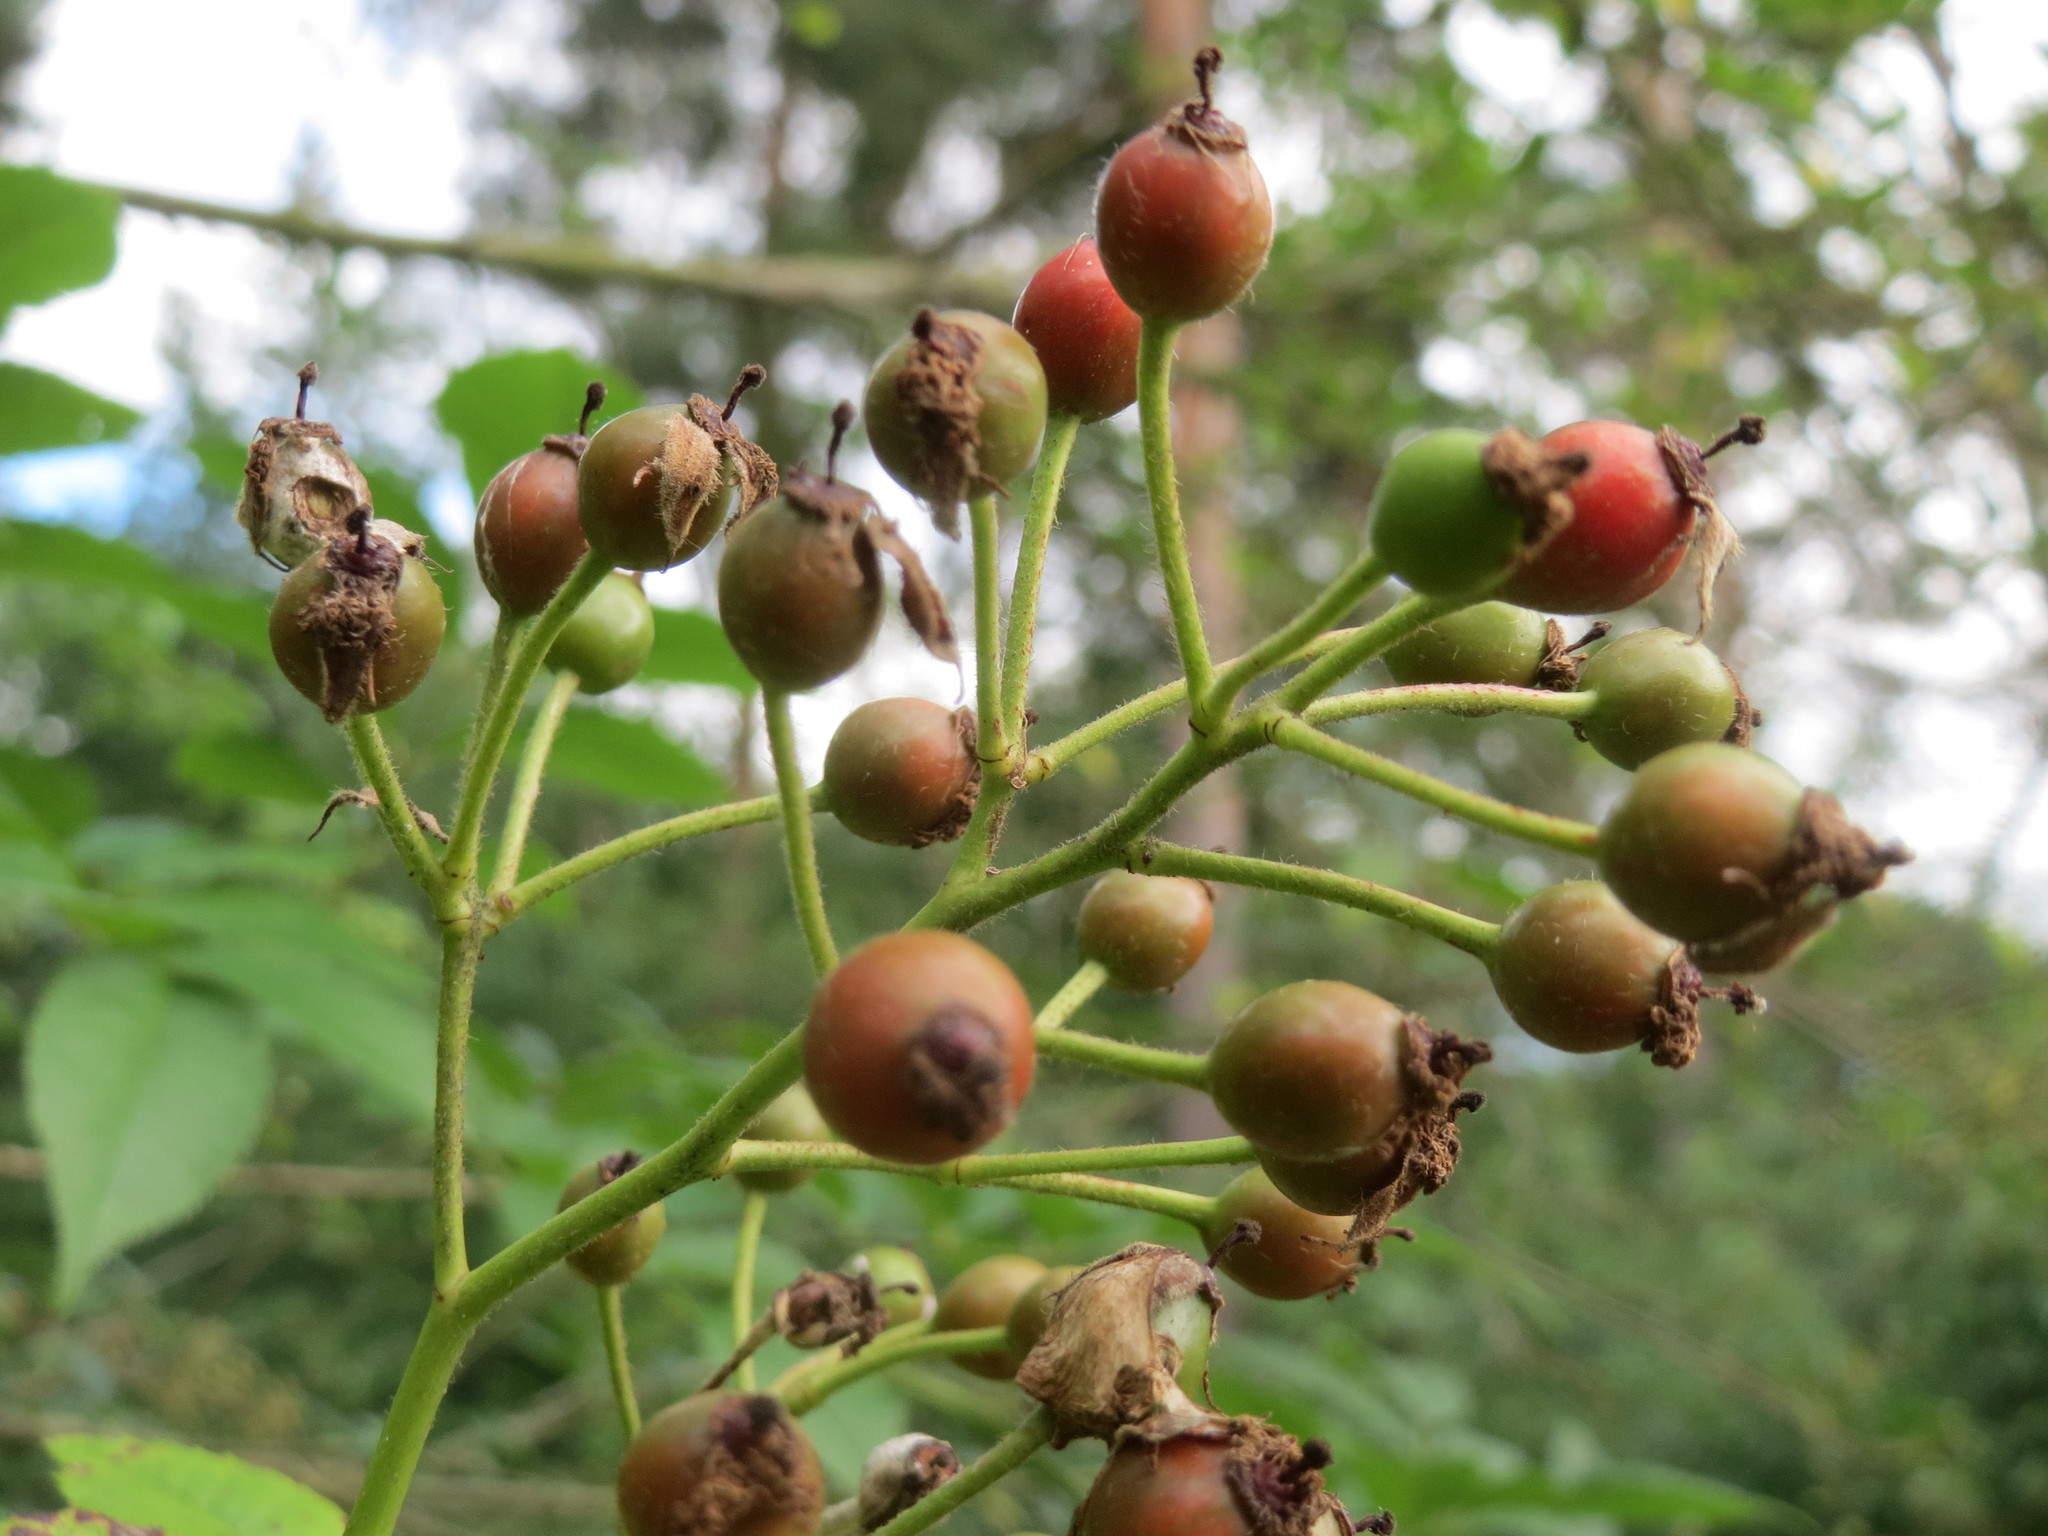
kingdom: Plantae
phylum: Tracheophyta
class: Magnoliopsida
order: Rosales
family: Rosaceae
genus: Rosa
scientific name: Rosa multiflora
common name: Multiflora rose
